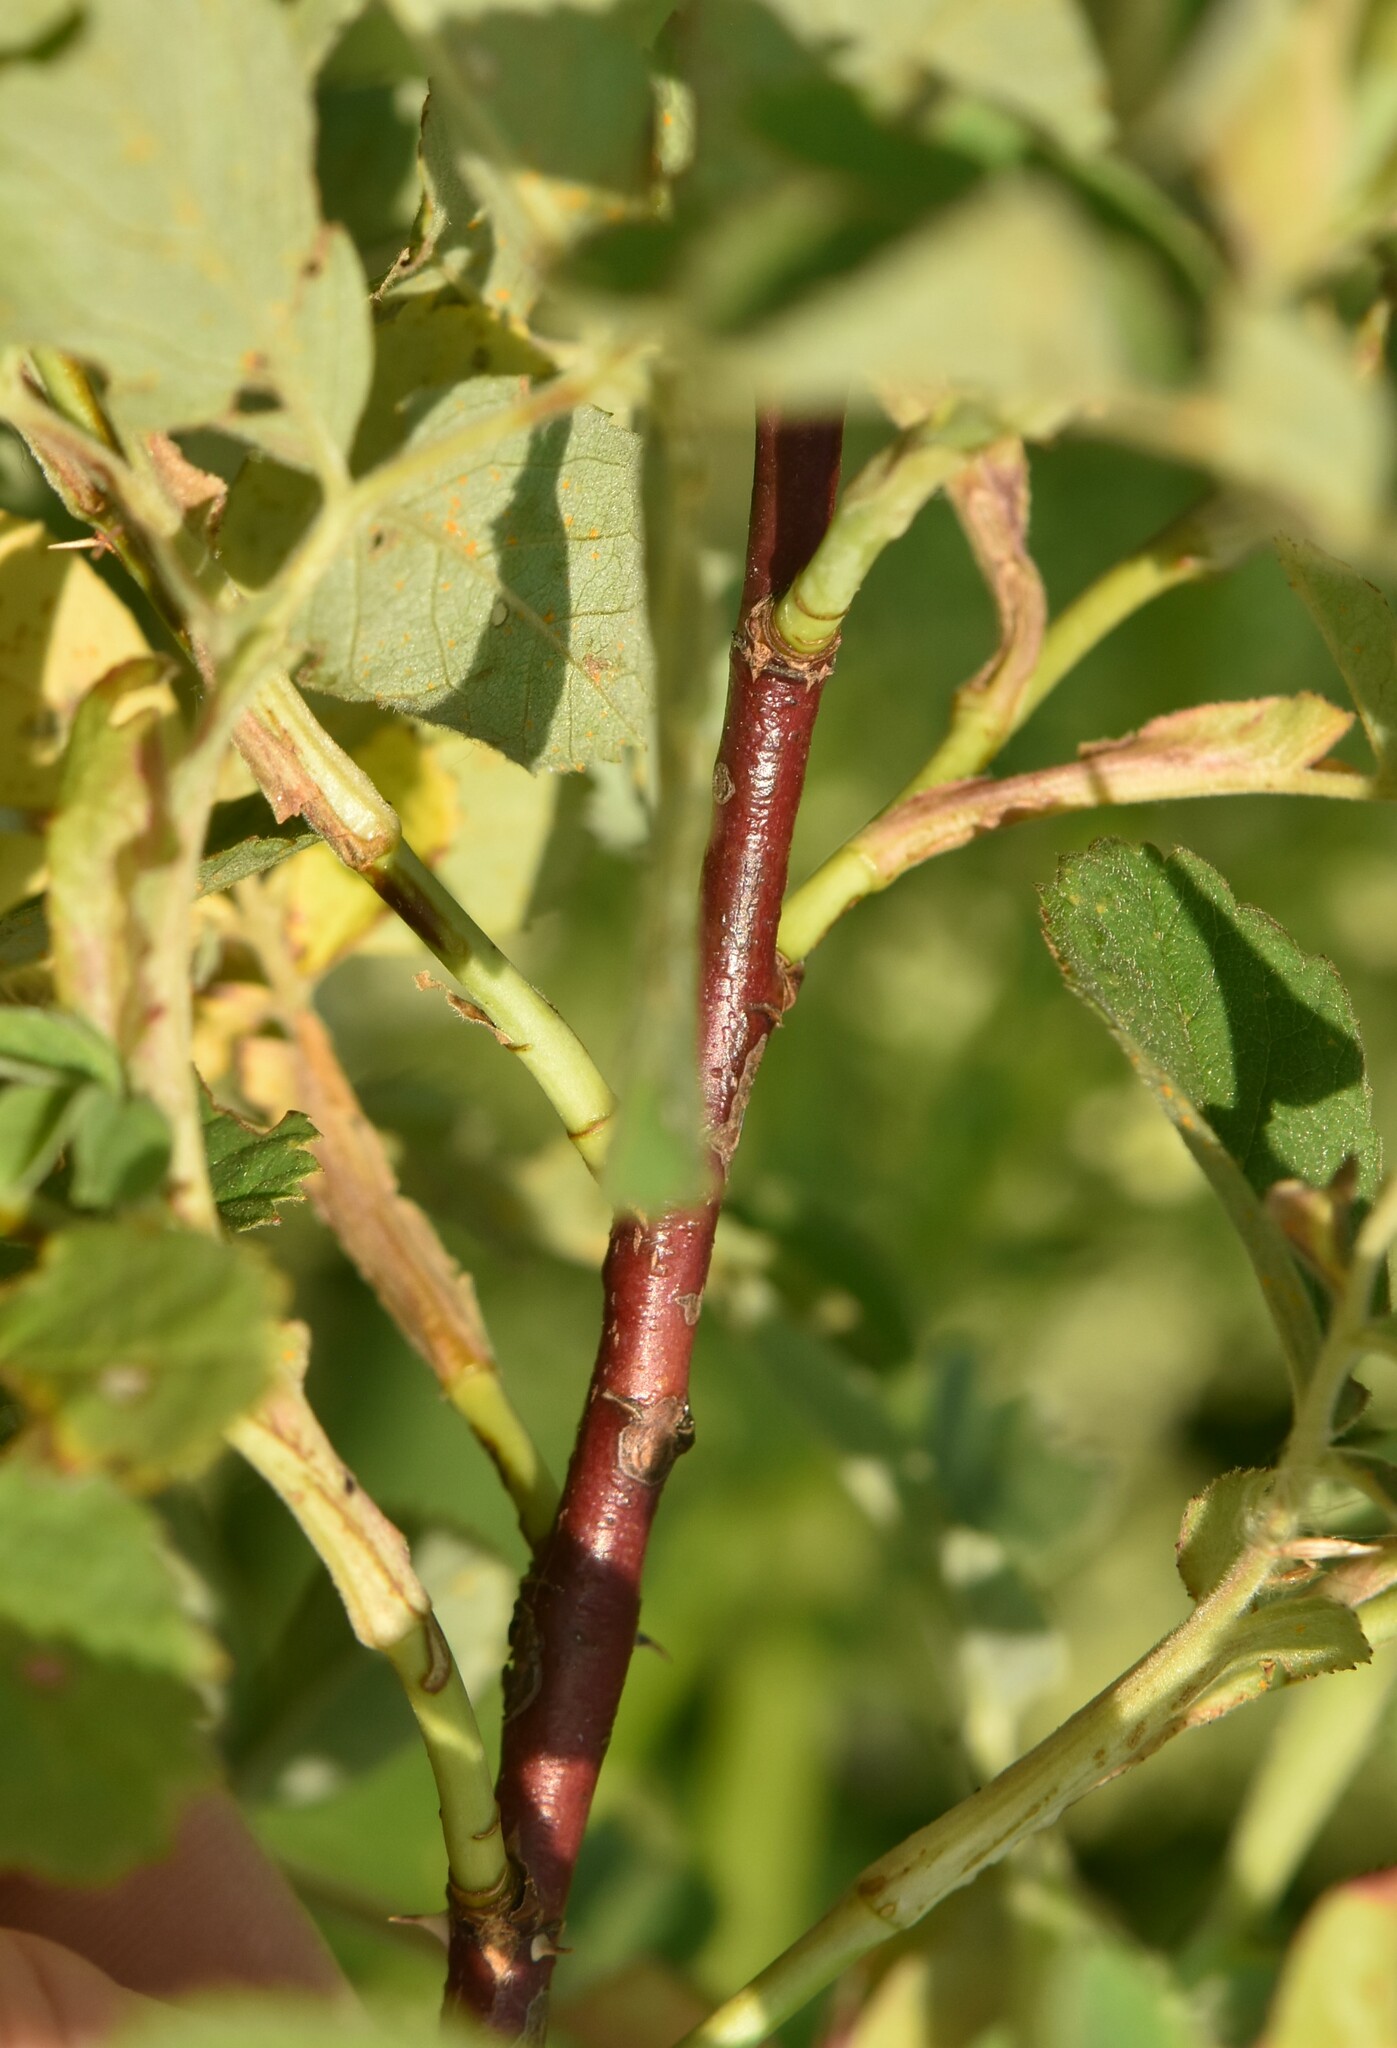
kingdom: Plantae
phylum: Tracheophyta
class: Magnoliopsida
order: Rosales
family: Rosaceae
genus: Rosa
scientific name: Rosa majalis
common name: Cinnamon rose
